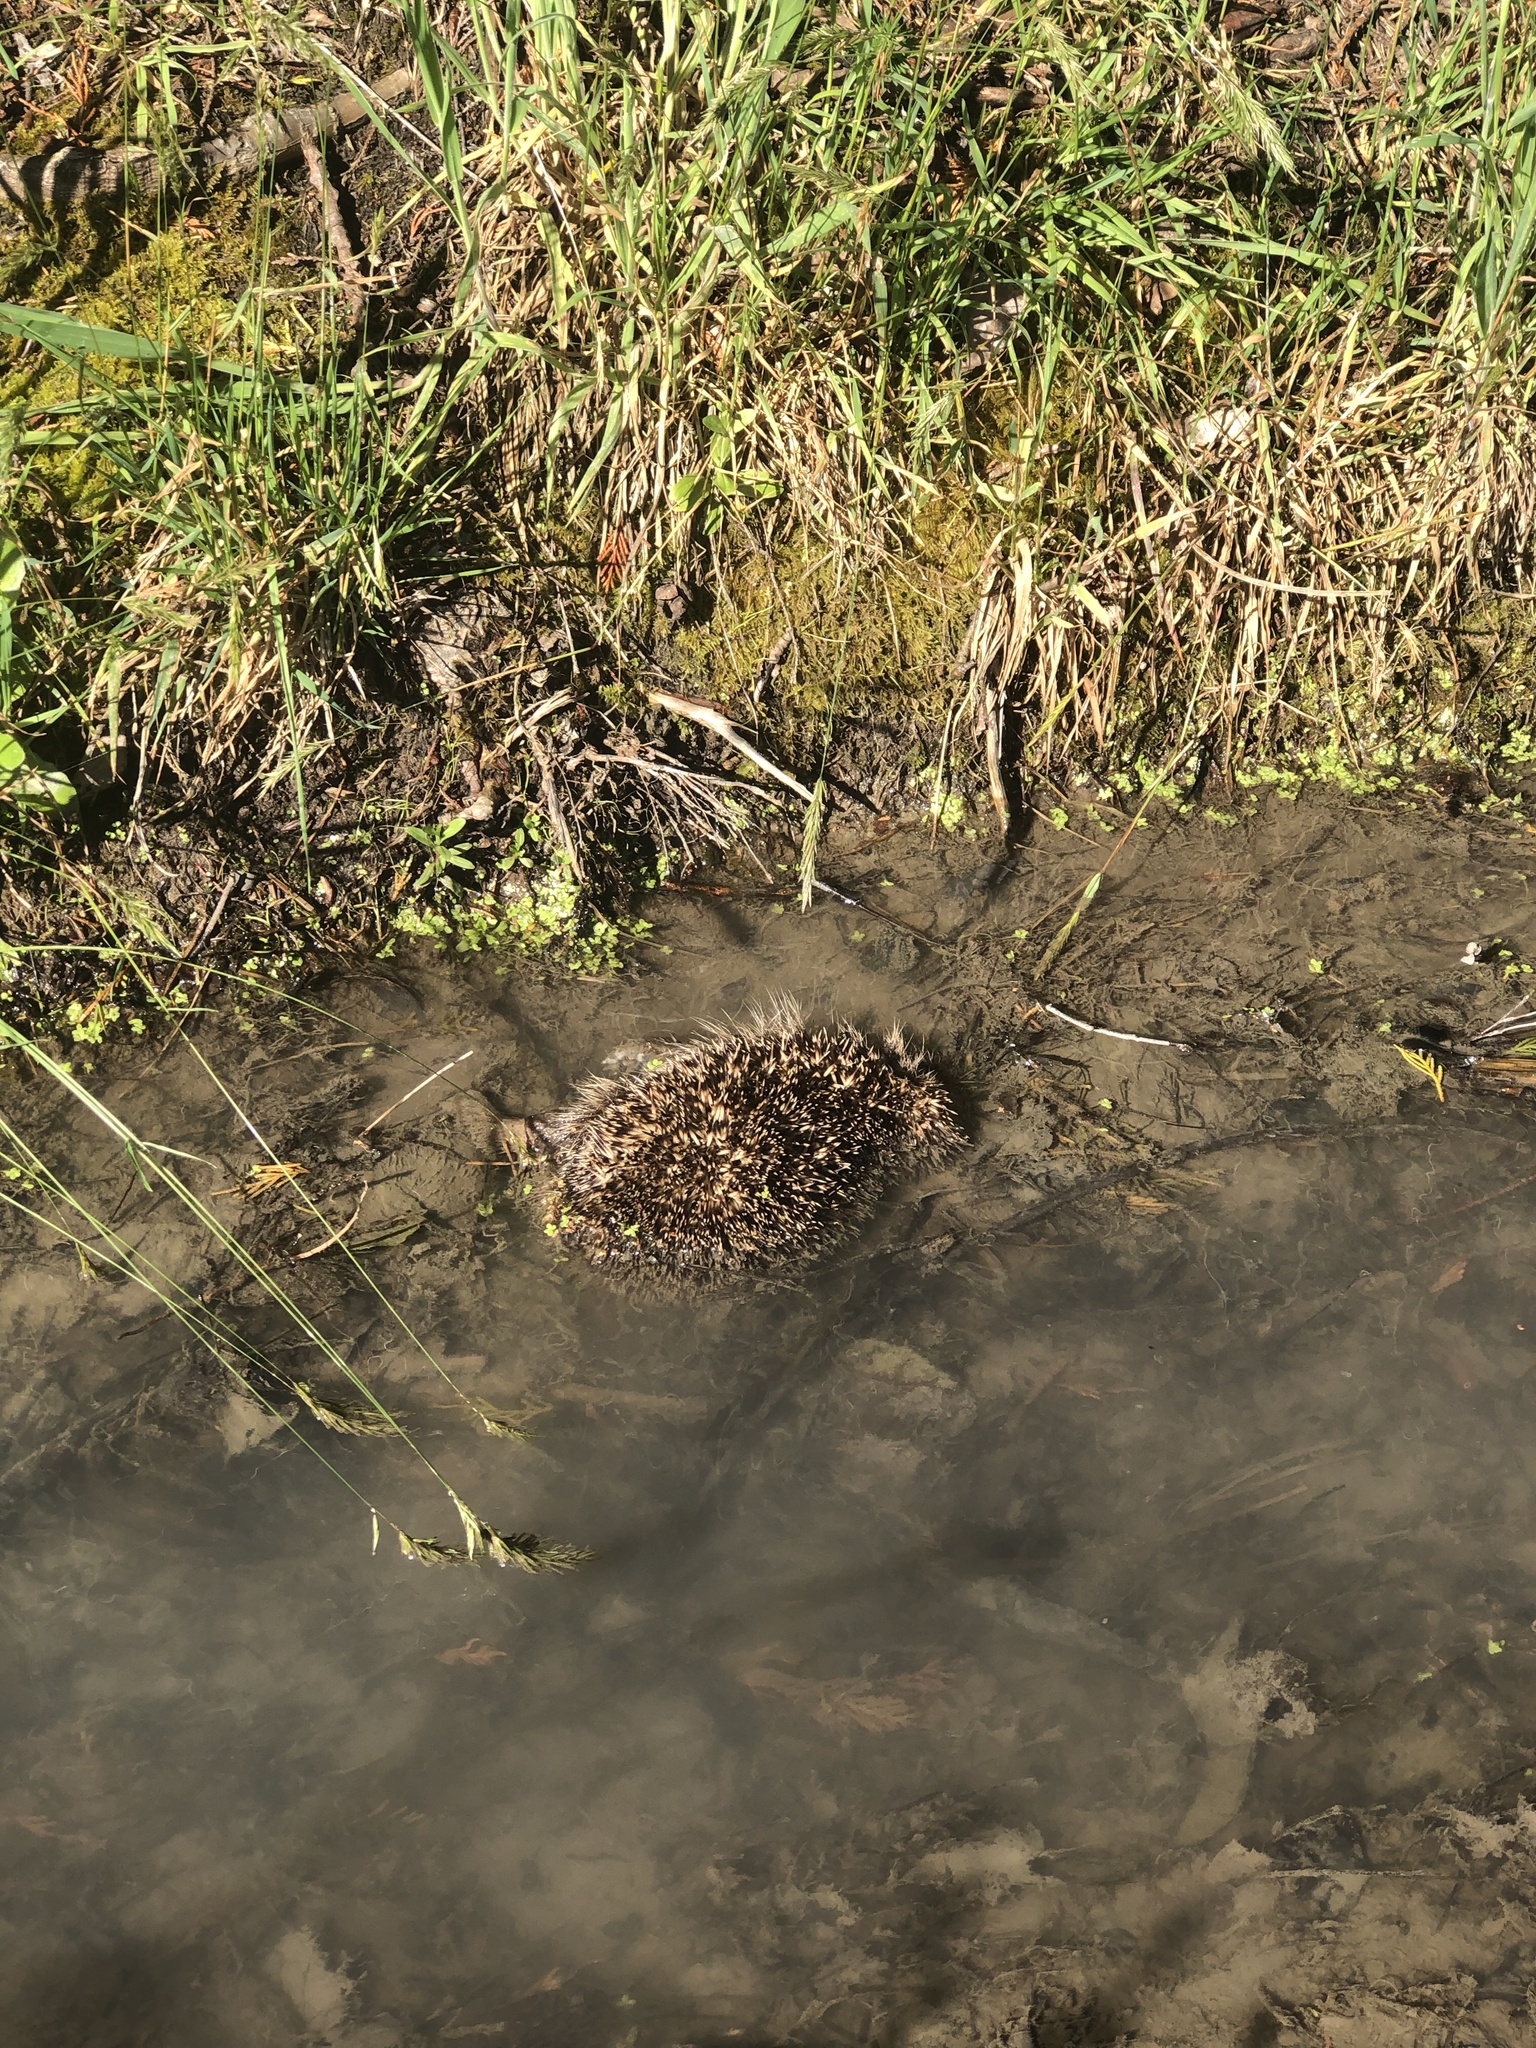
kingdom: Animalia
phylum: Chordata
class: Mammalia
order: Erinaceomorpha
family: Erinaceidae
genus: Erinaceus
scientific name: Erinaceus europaeus
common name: West european hedgehog
